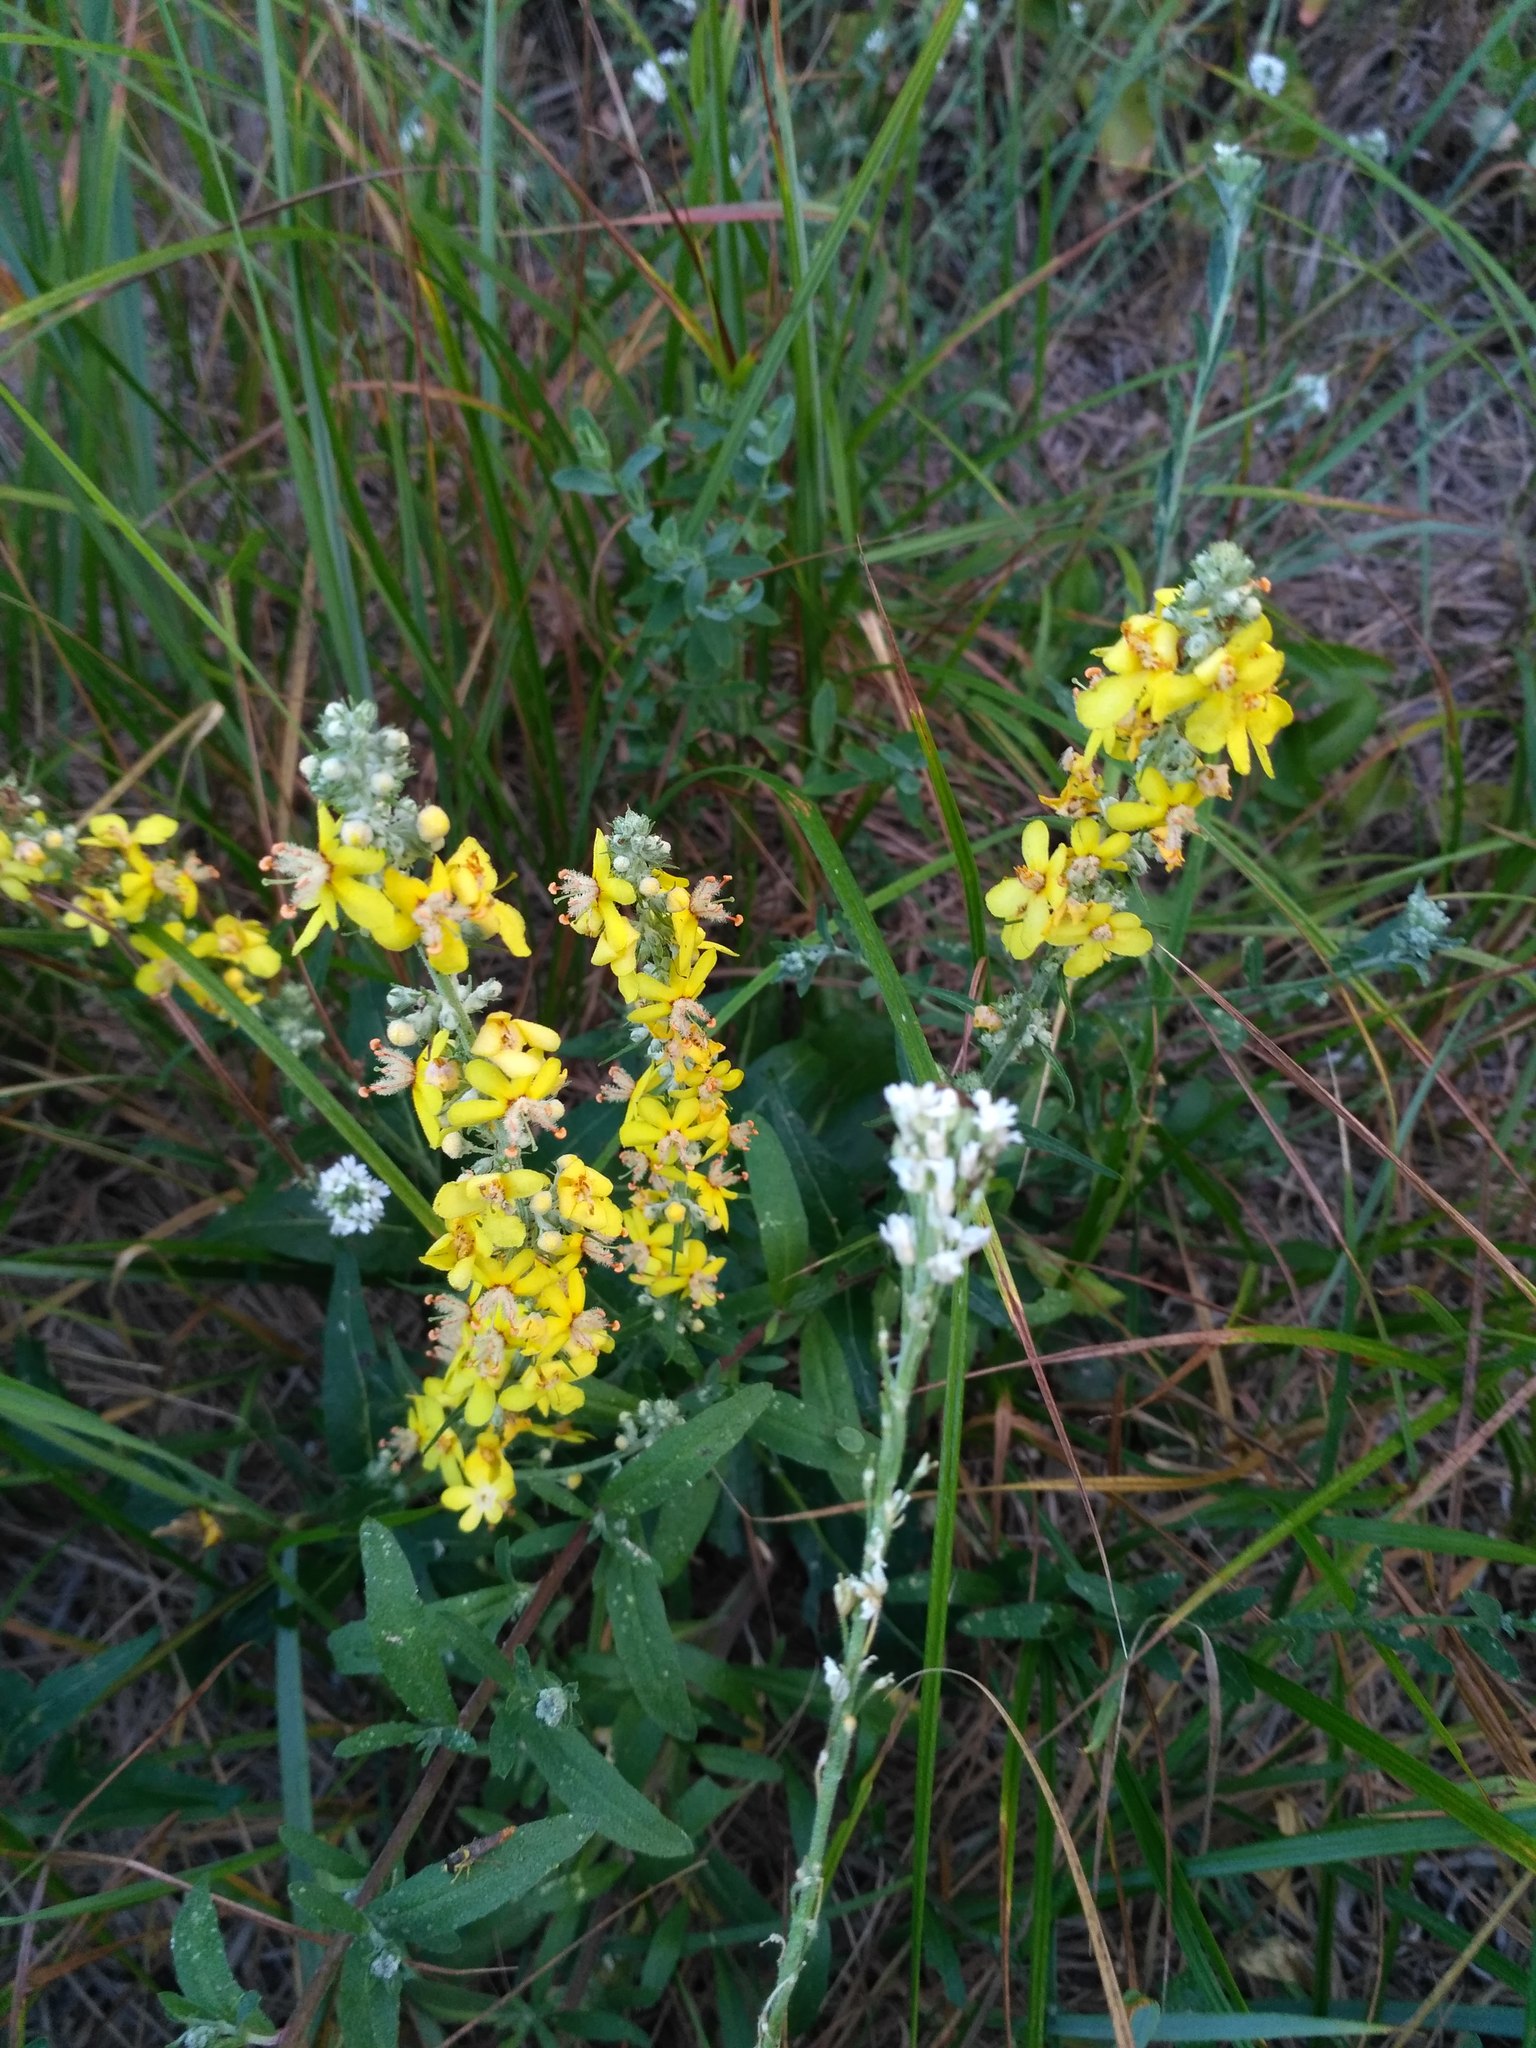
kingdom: Plantae
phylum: Tracheophyta
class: Magnoliopsida
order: Lamiales
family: Scrophulariaceae
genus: Verbascum
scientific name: Verbascum lychnitis
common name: White mullein
